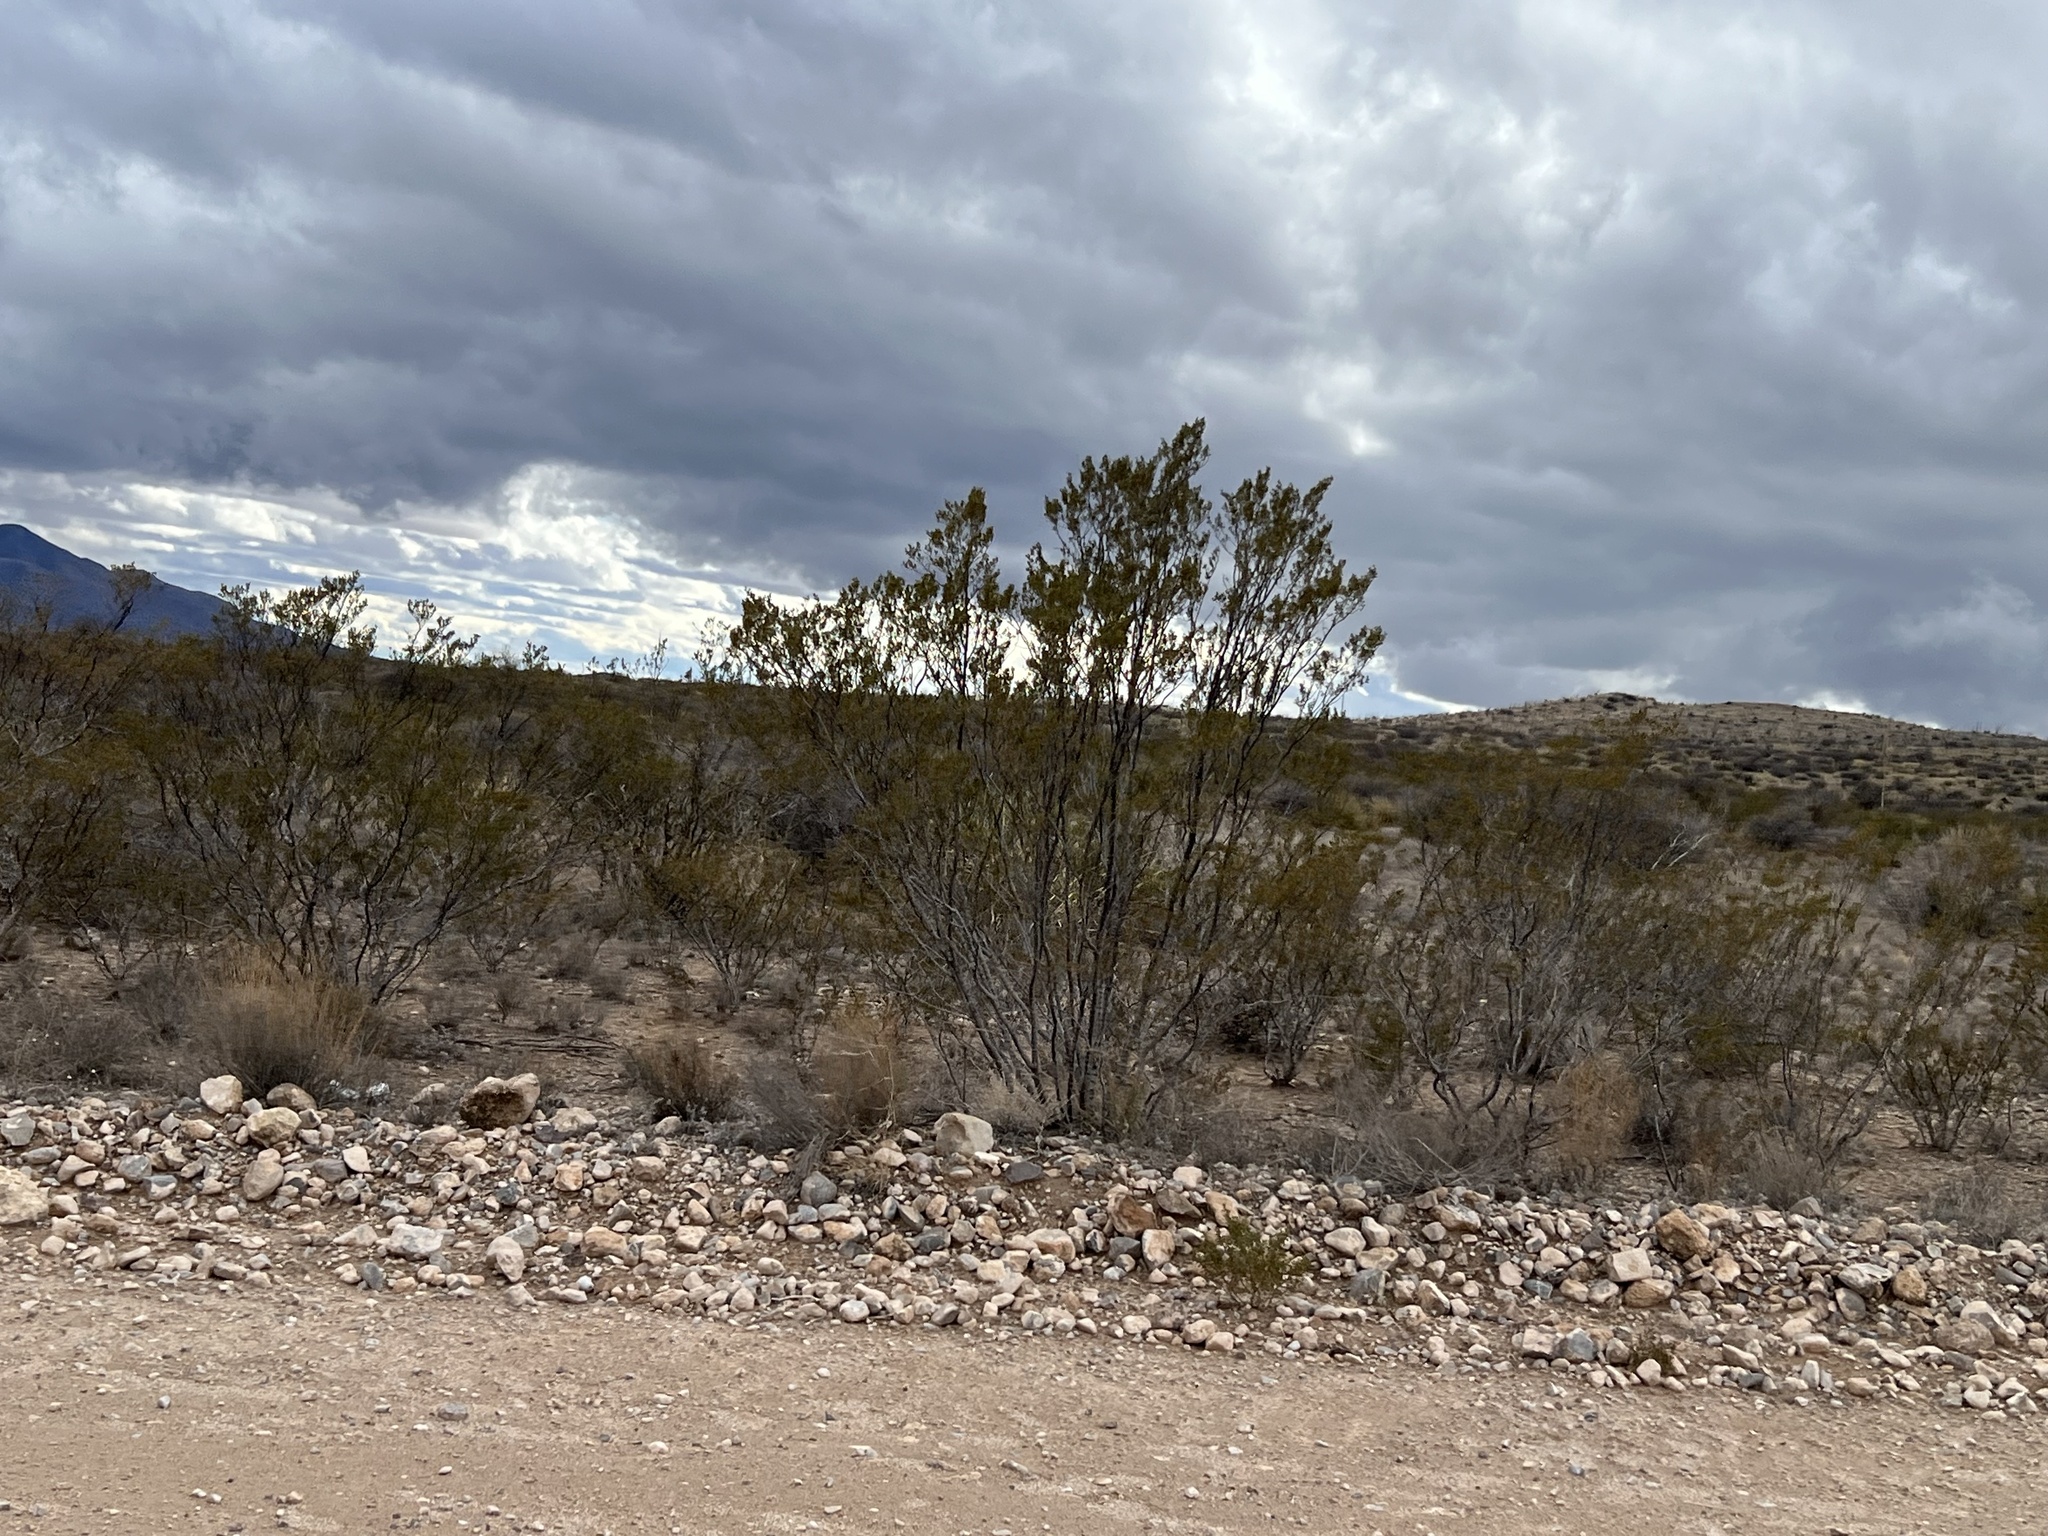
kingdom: Plantae
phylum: Tracheophyta
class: Magnoliopsida
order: Zygophyllales
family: Zygophyllaceae
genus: Larrea
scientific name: Larrea tridentata
